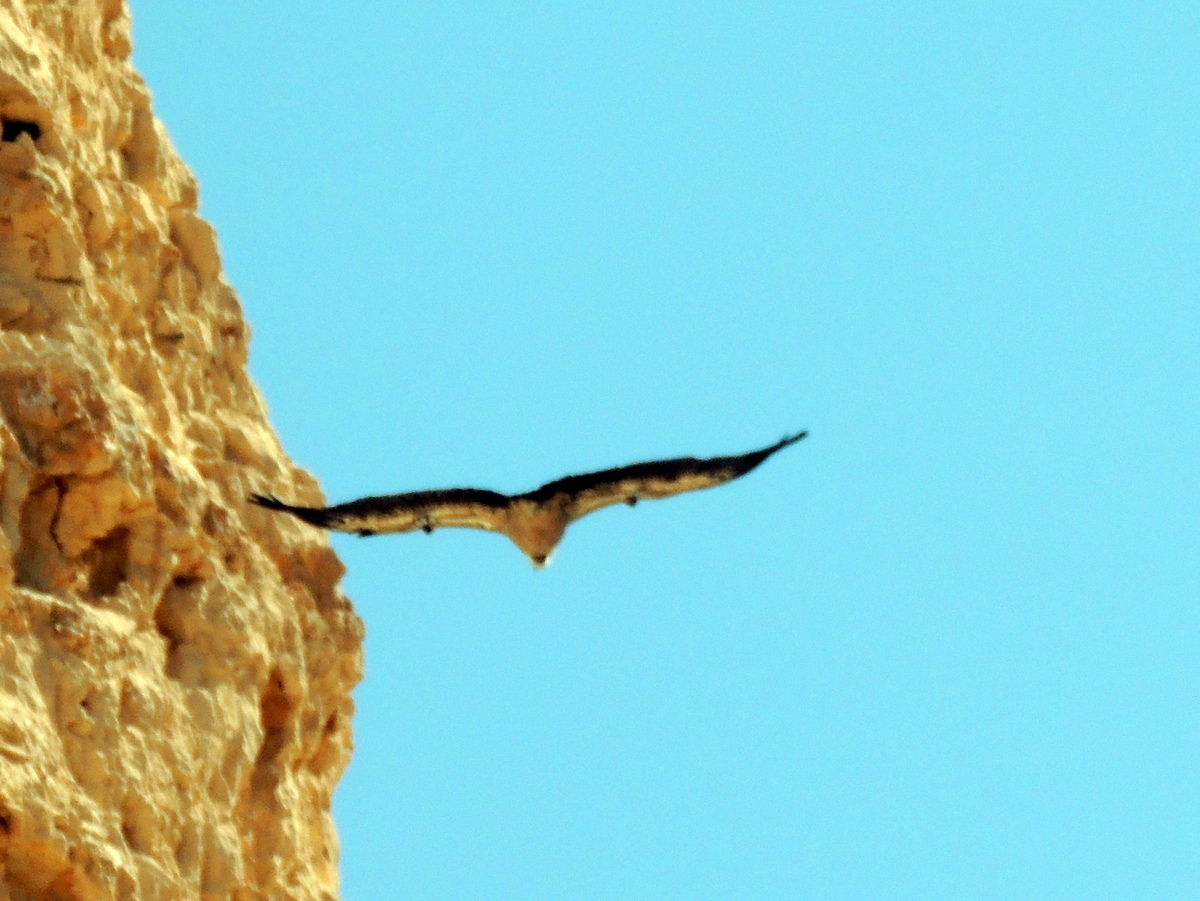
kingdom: Animalia
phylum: Chordata
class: Aves
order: Accipitriformes
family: Accipitridae
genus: Gyps
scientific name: Gyps fulvus
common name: Griffon vulture
